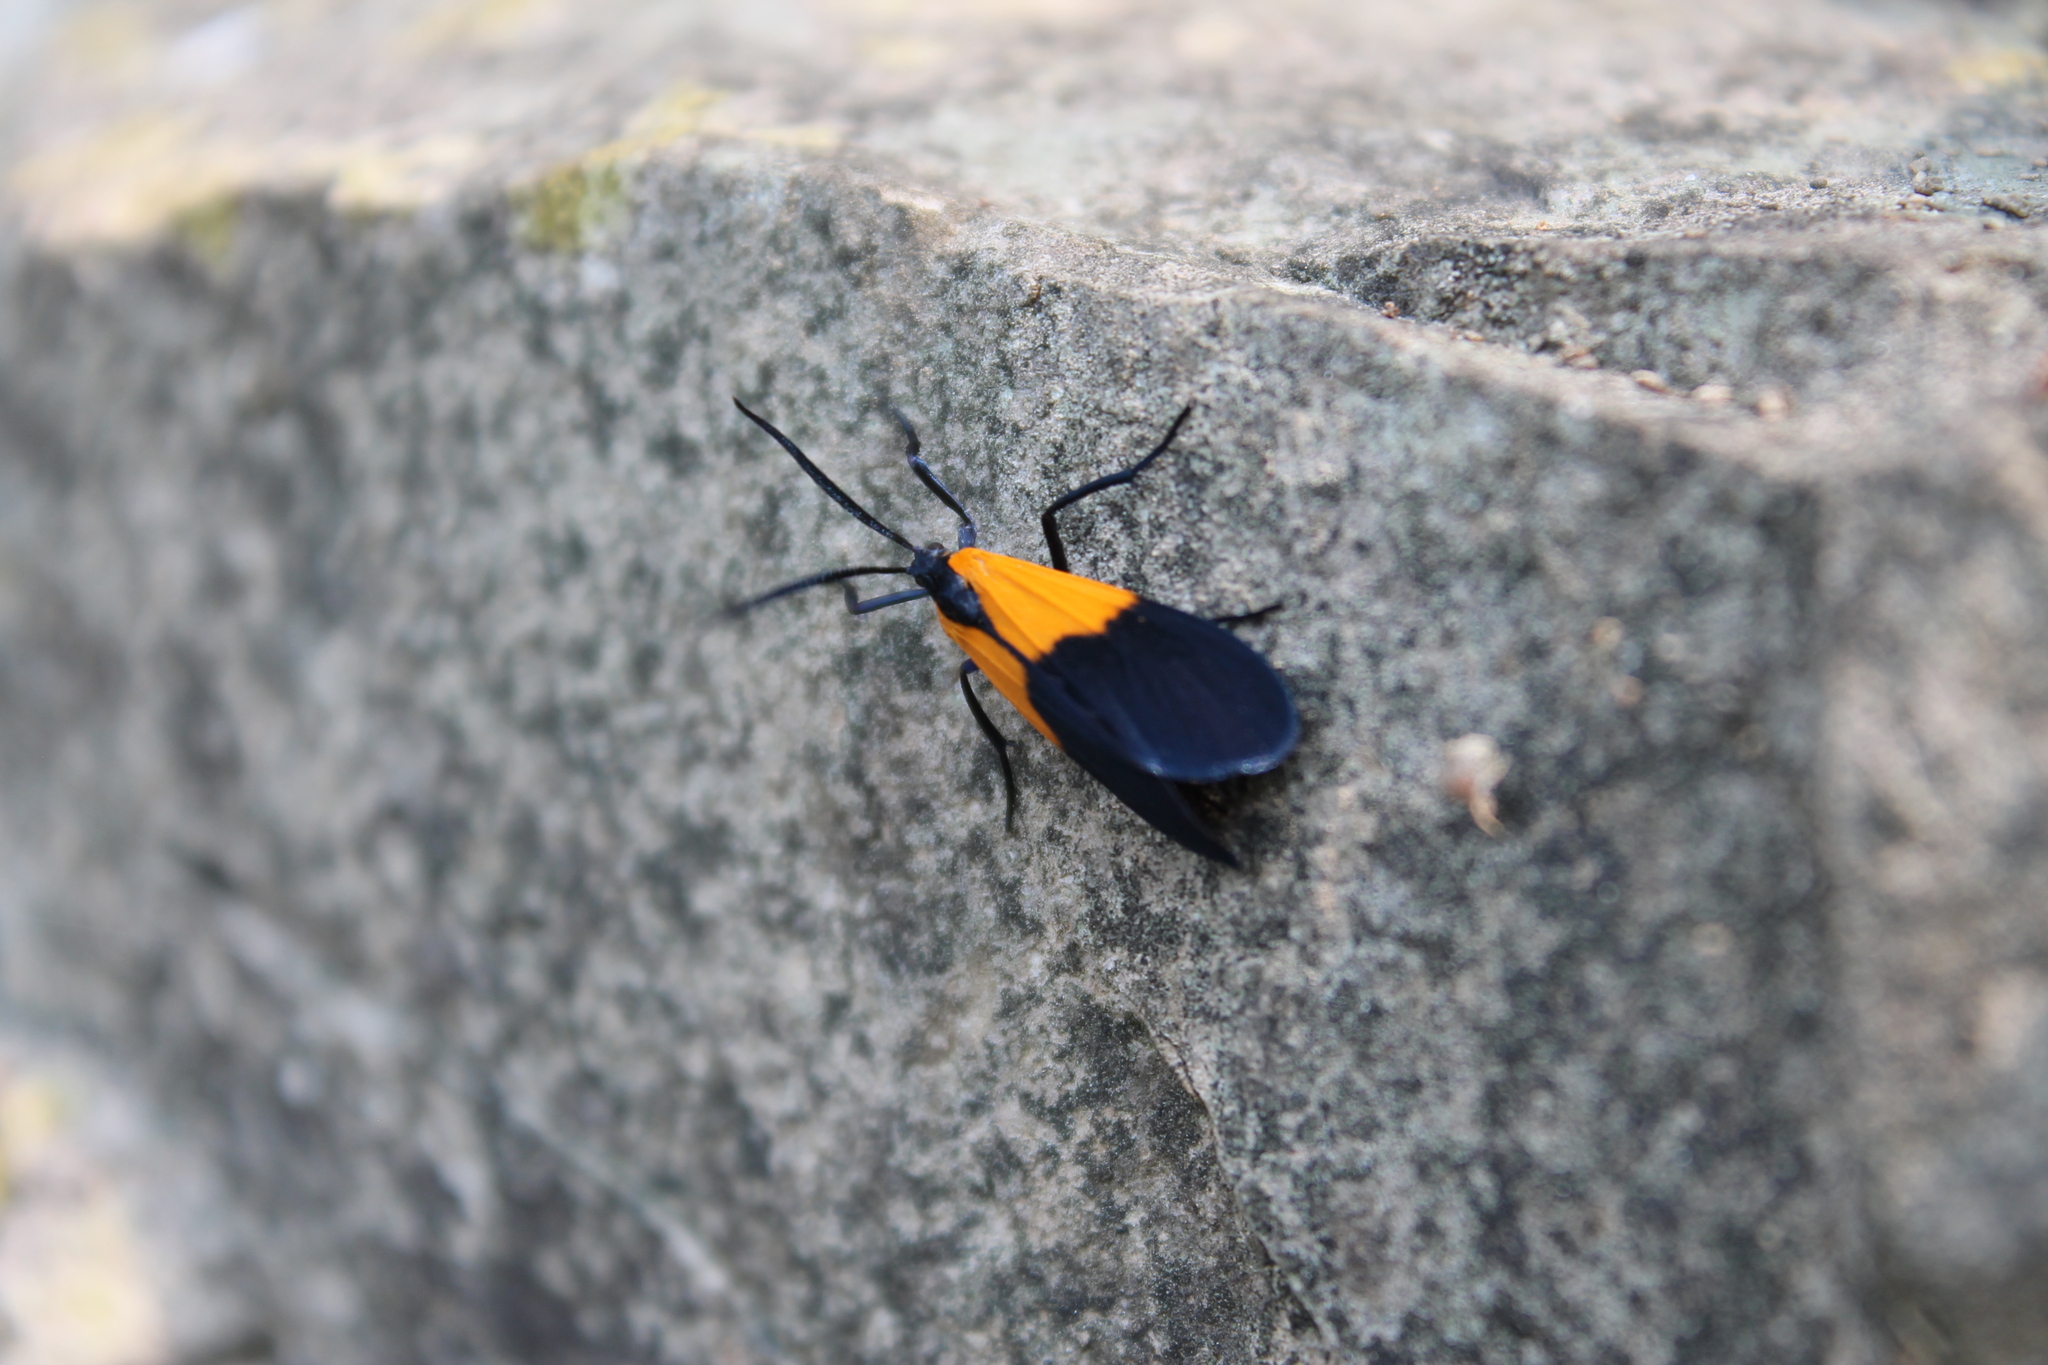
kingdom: Animalia
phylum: Arthropoda
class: Insecta
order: Lepidoptera
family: Erebidae
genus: Lycomorpha
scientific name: Lycomorpha pholus
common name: Black-and-yellow lichen moth
